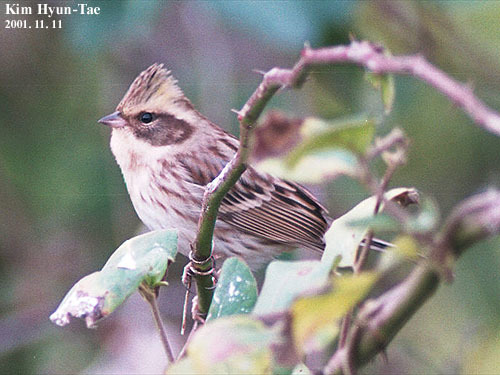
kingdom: Animalia
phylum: Chordata
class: Aves
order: Passeriformes
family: Emberizidae
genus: Emberiza
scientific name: Emberiza elegans
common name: Yellow-throated bunting
